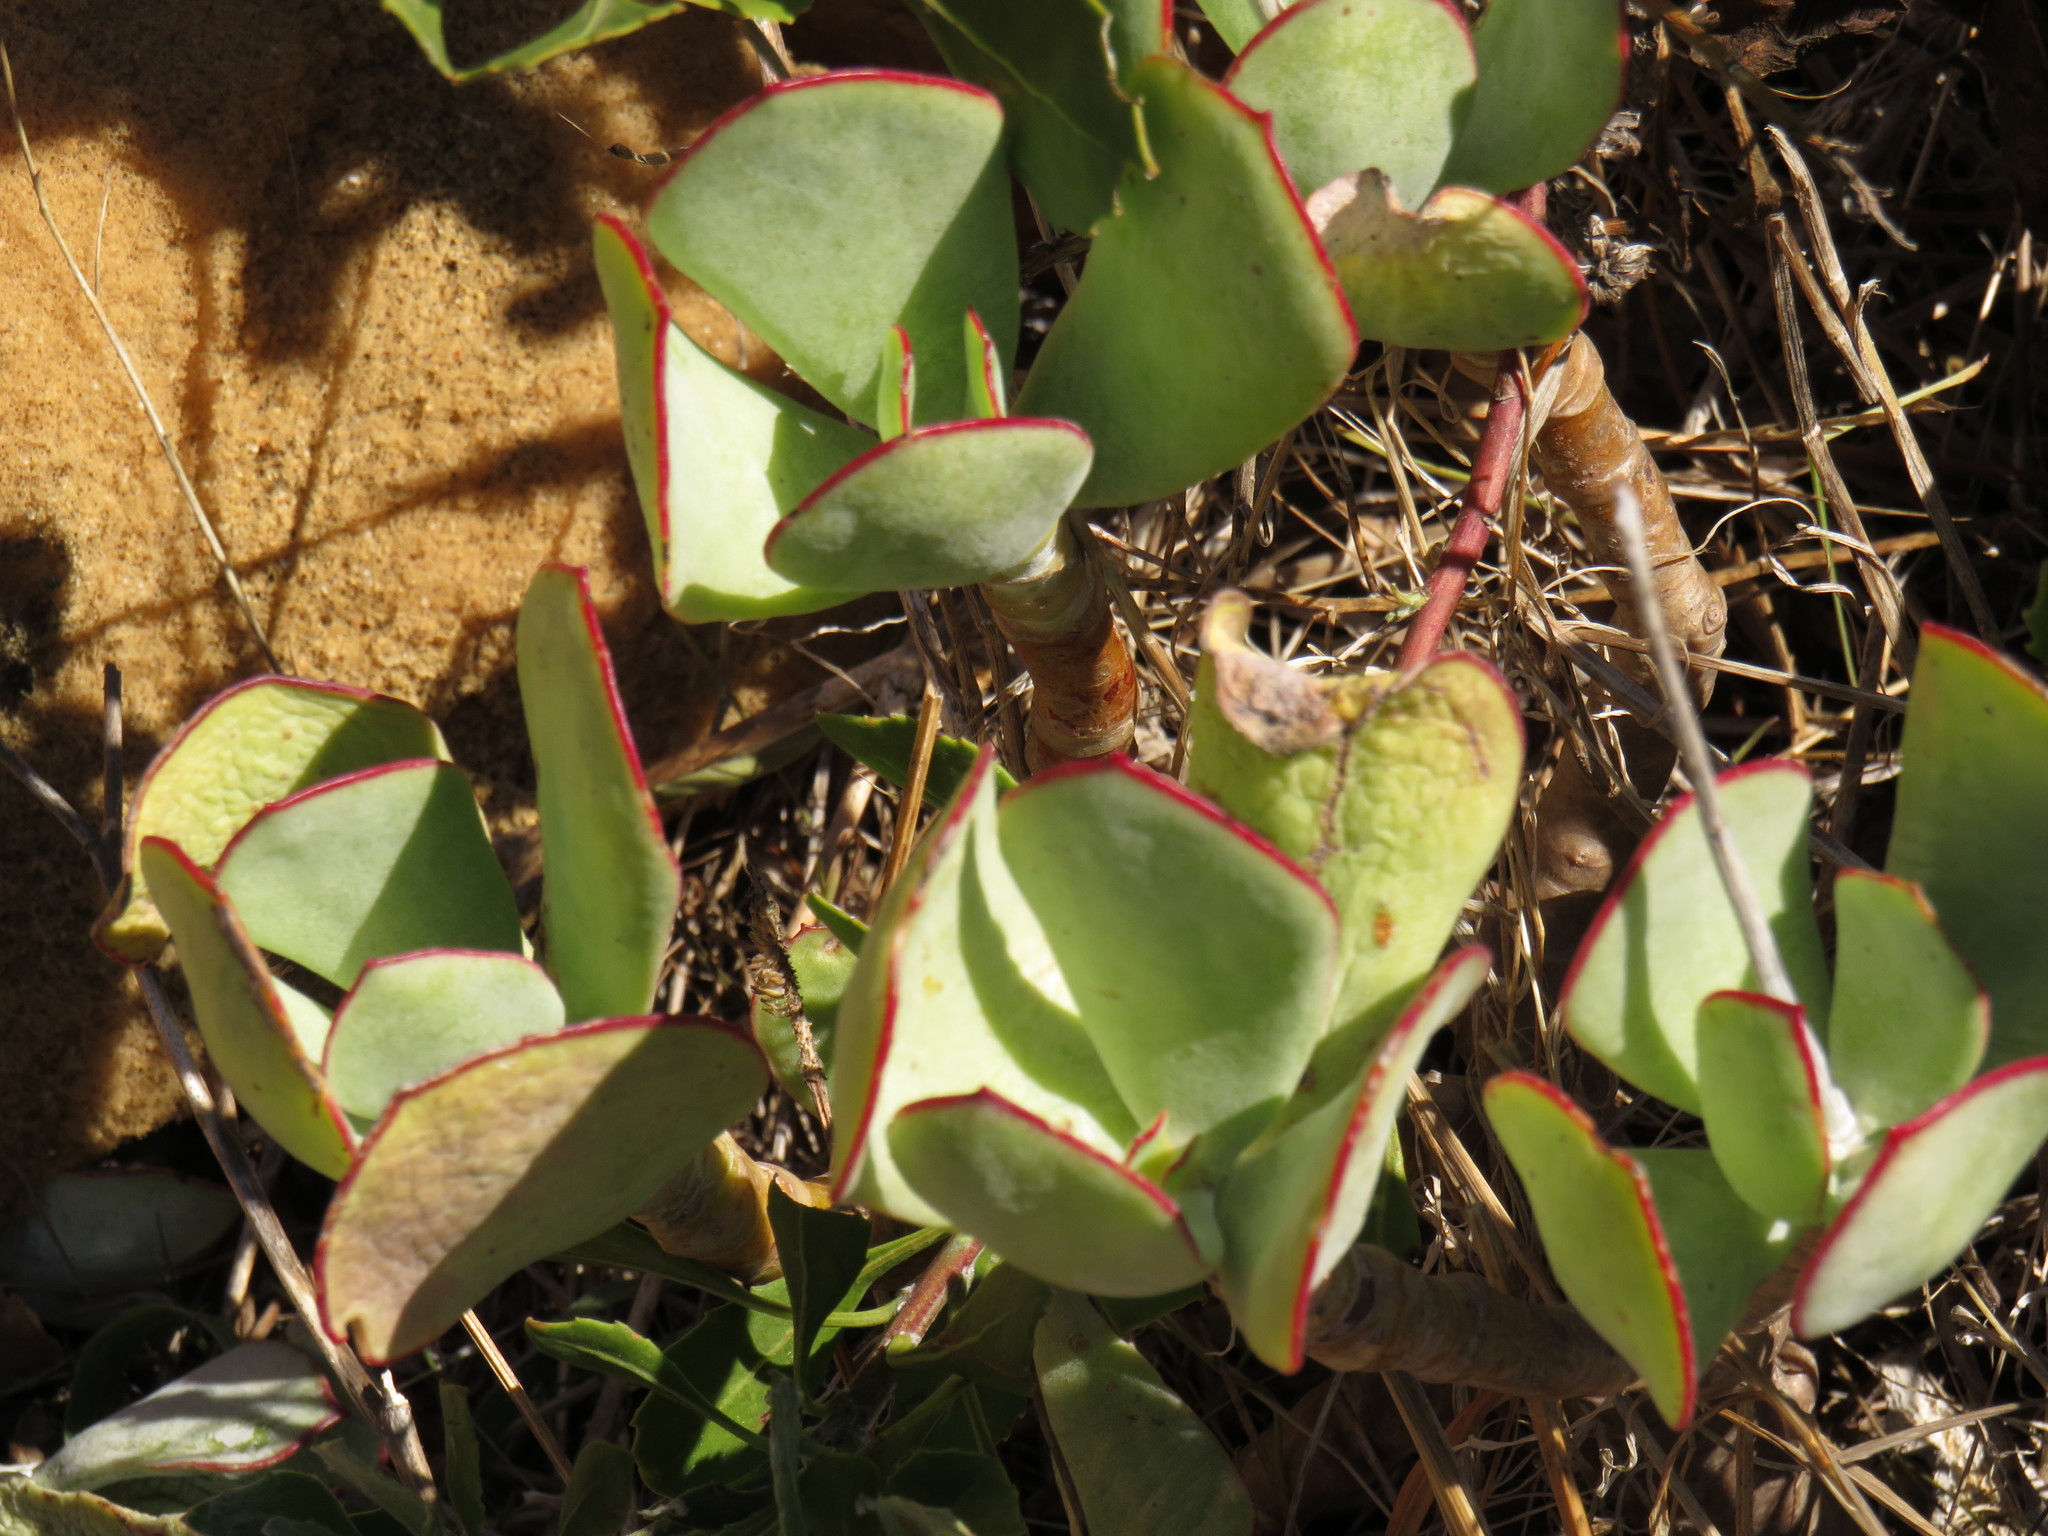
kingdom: Plantae
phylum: Tracheophyta
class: Magnoliopsida
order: Saxifragales
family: Crassulaceae
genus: Cotyledon
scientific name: Cotyledon orbiculata
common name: Pig's ear
